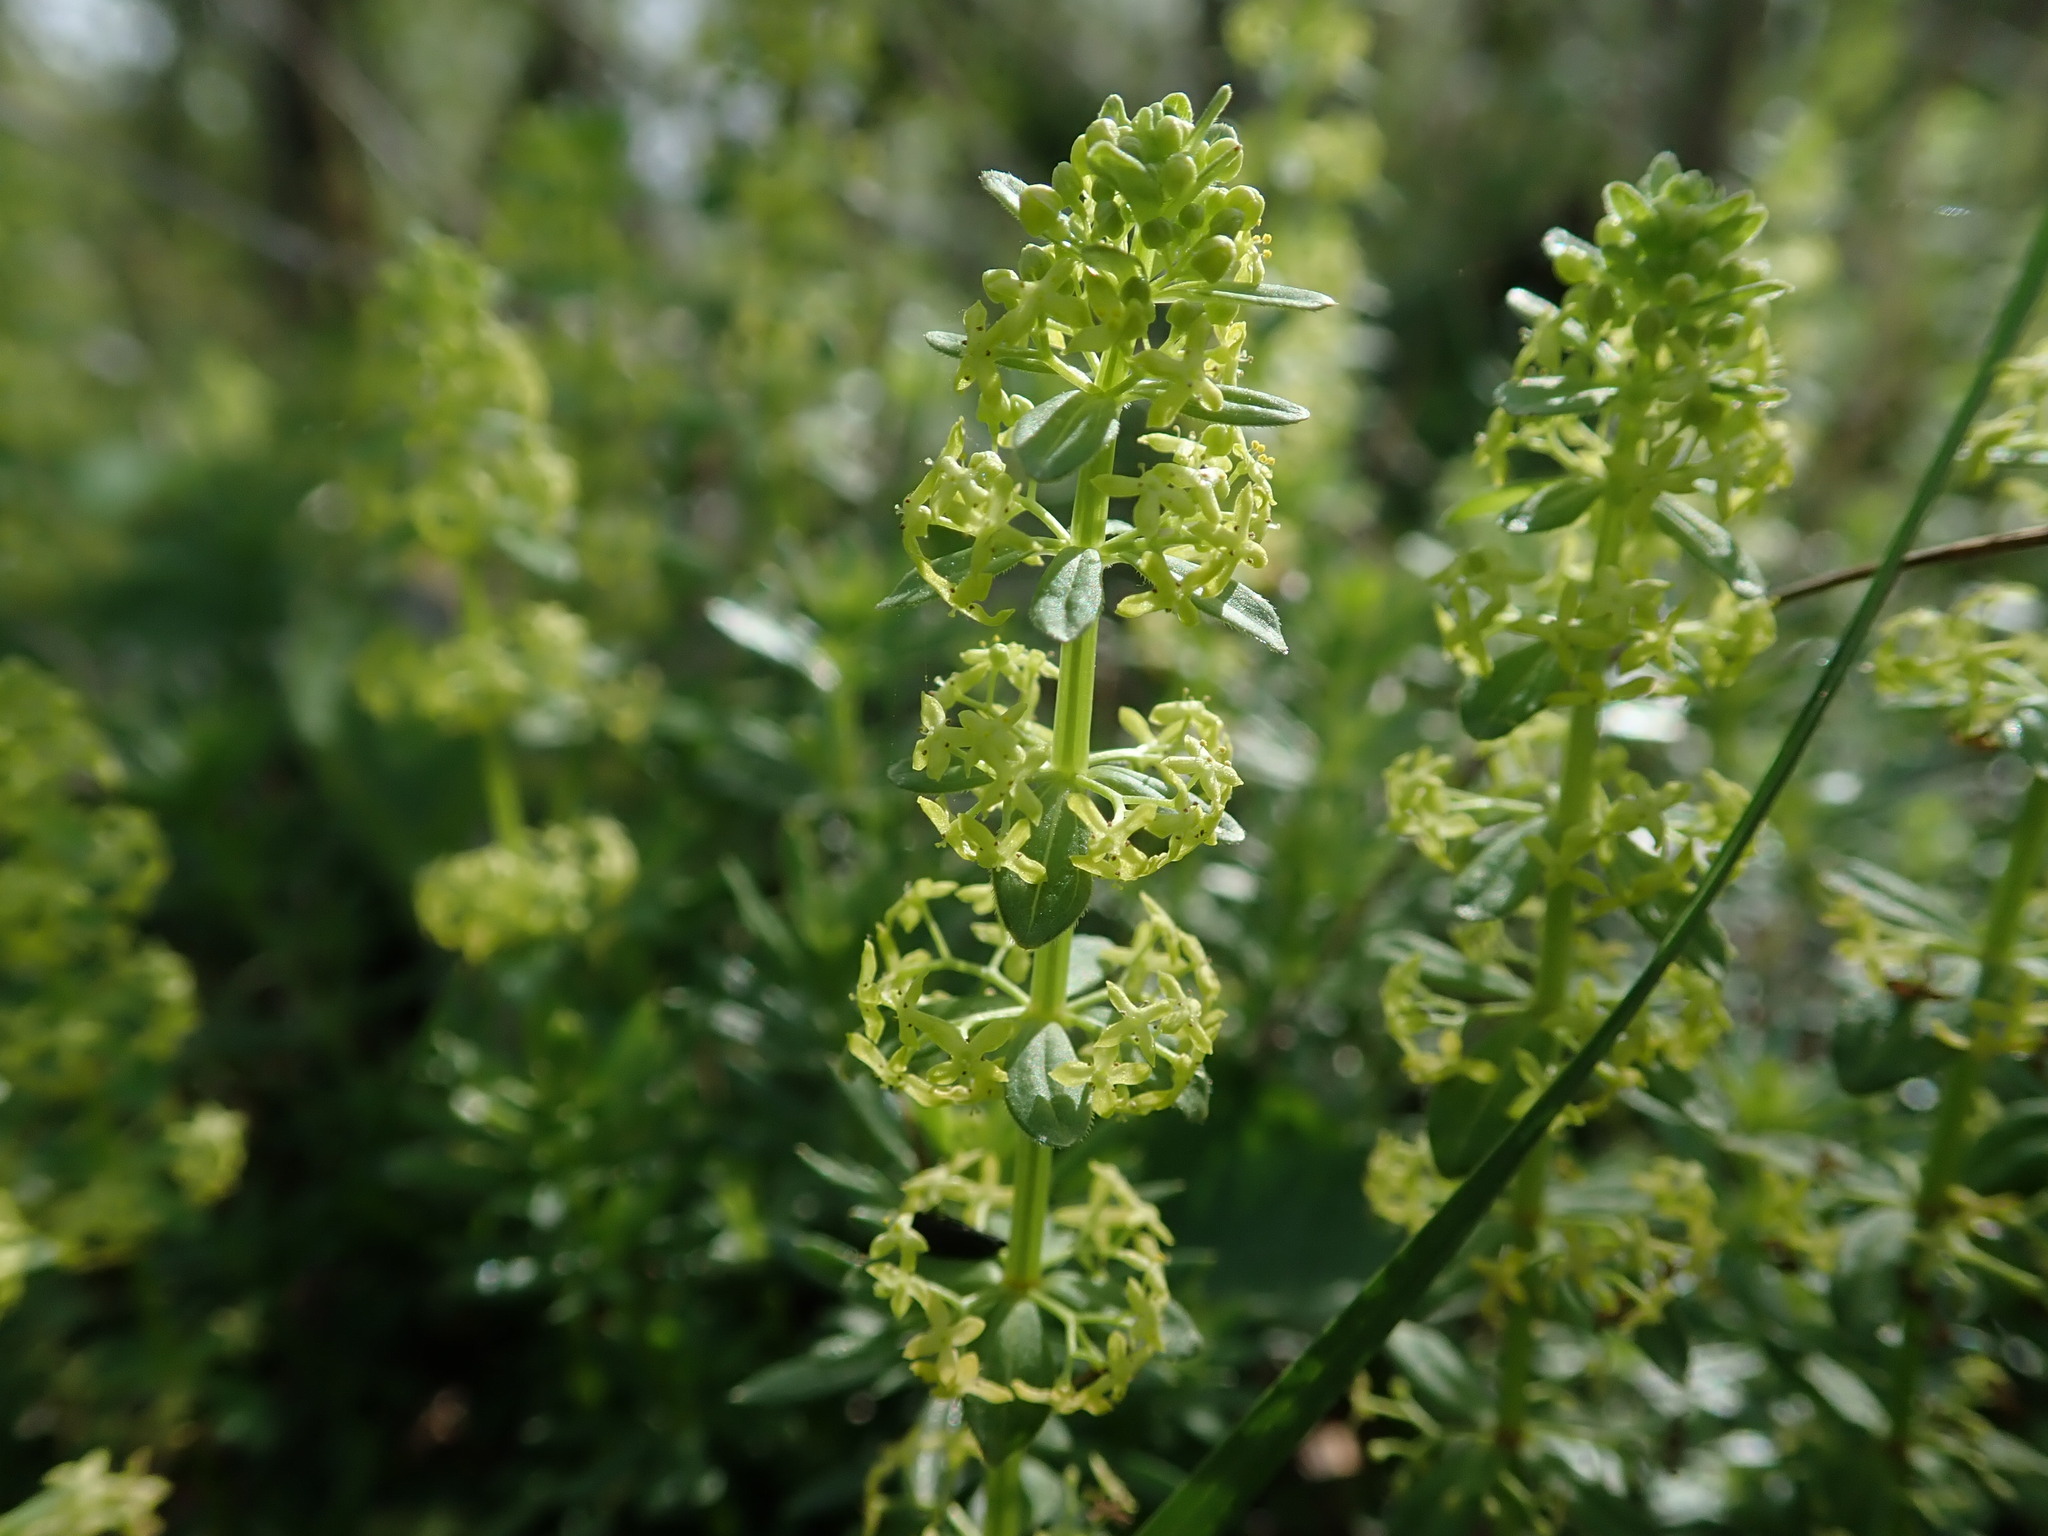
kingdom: Plantae
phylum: Tracheophyta
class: Magnoliopsida
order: Gentianales
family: Rubiaceae
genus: Cruciata
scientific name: Cruciata glabra
